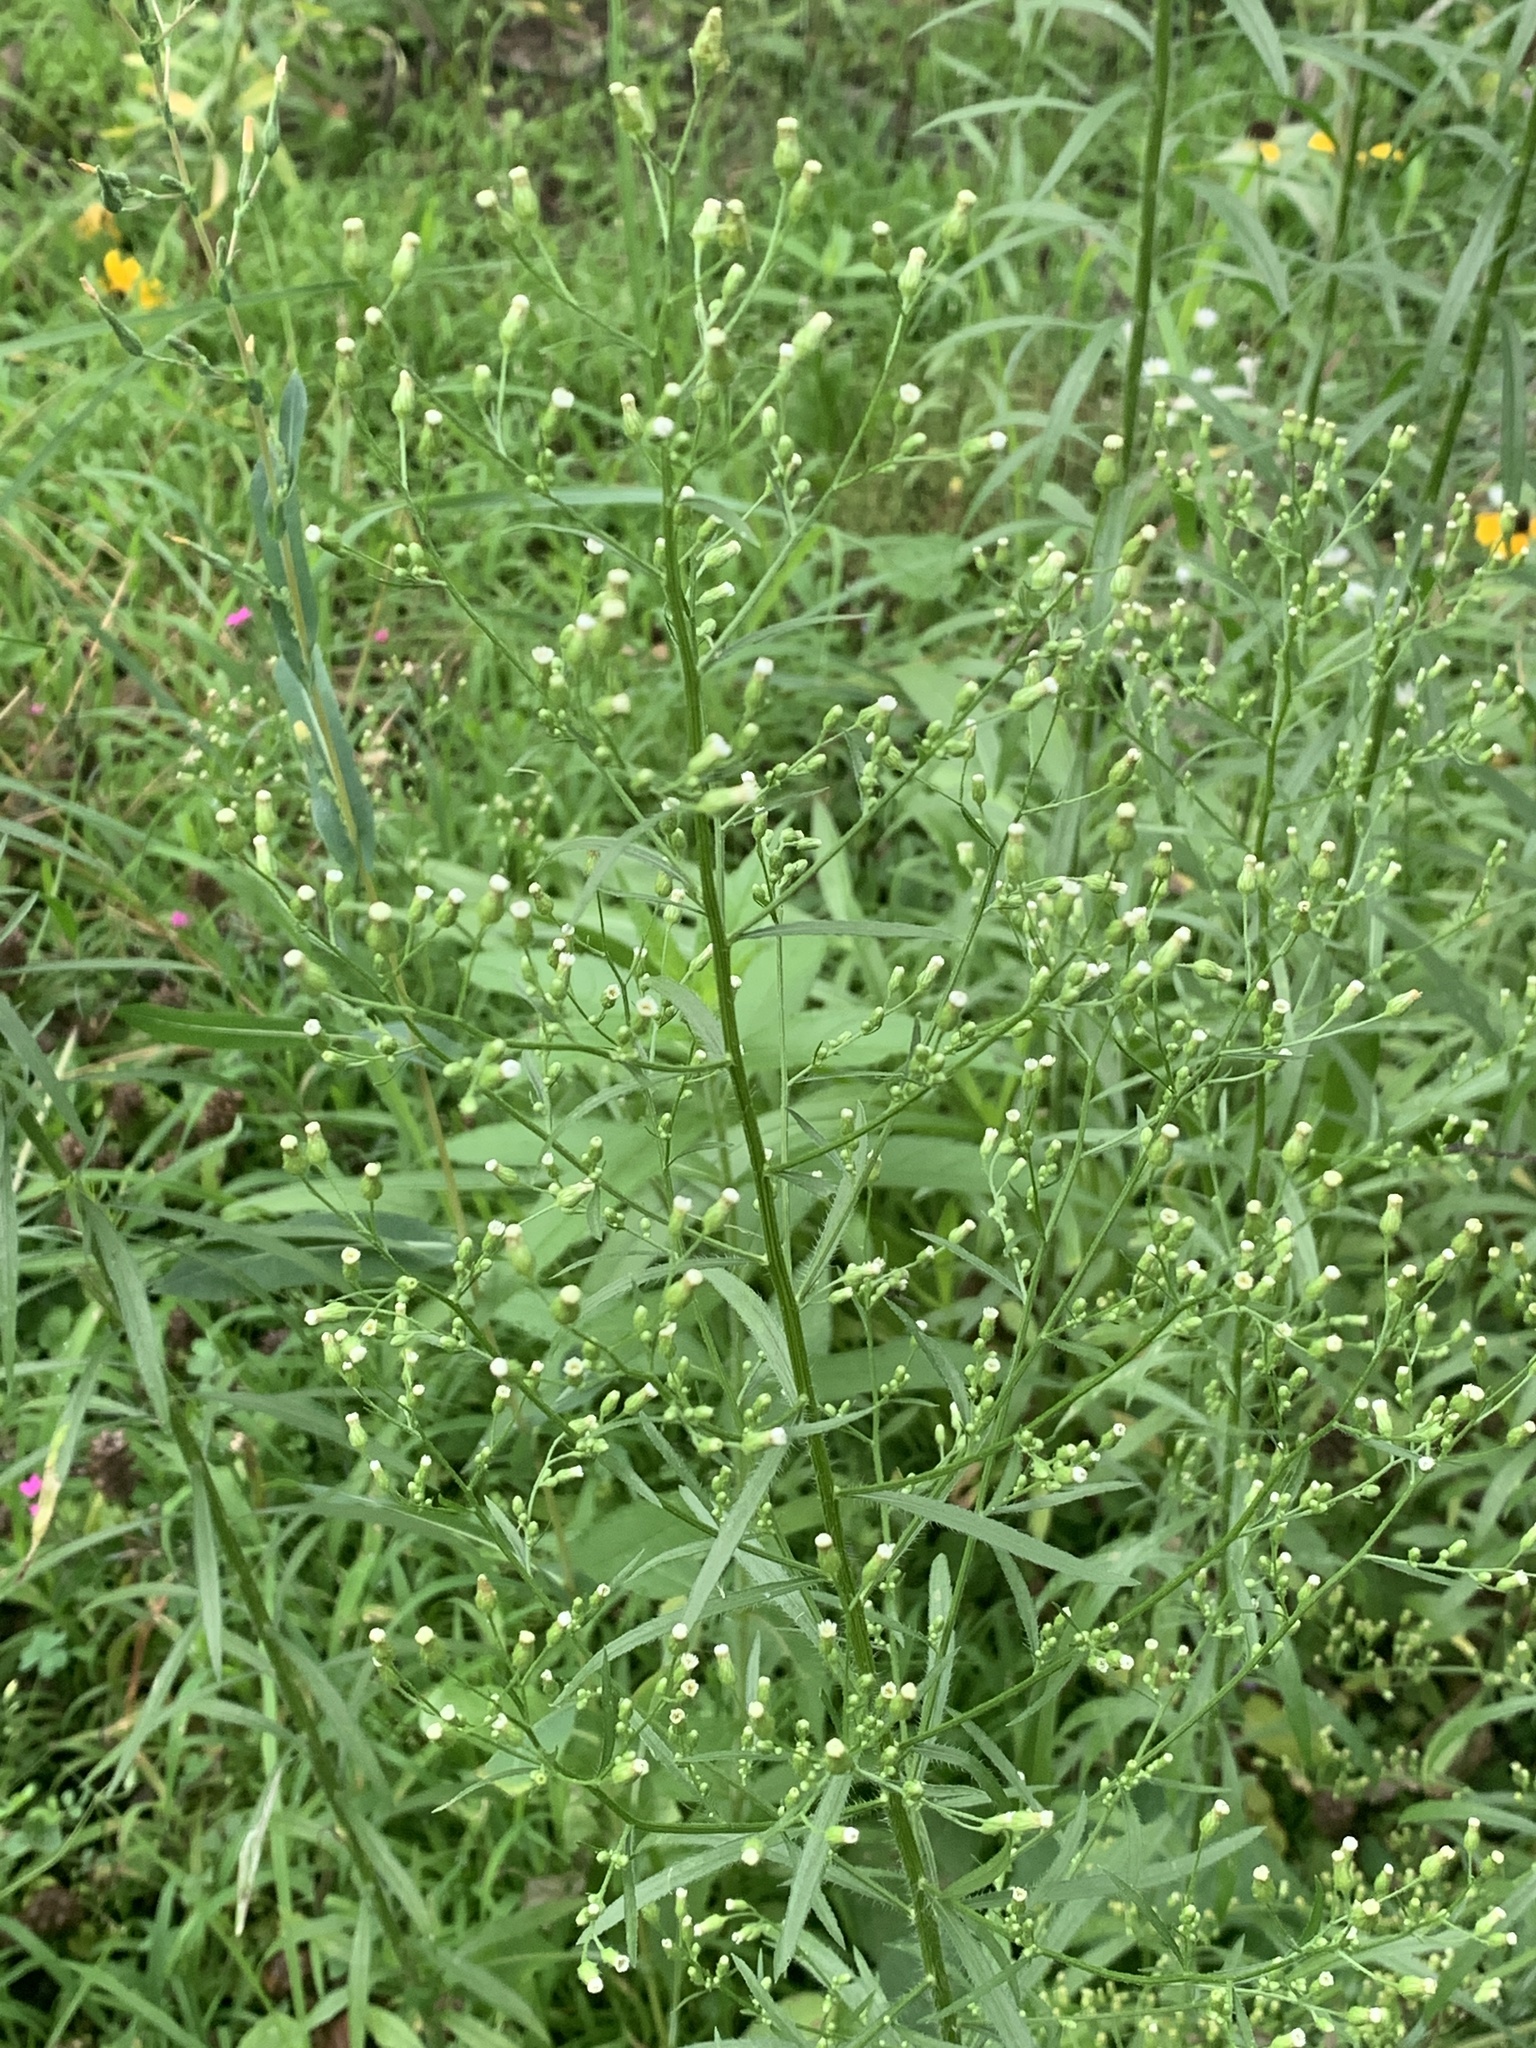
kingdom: Plantae
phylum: Tracheophyta
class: Magnoliopsida
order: Asterales
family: Asteraceae
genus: Erigeron
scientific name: Erigeron canadensis
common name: Canadian fleabane
